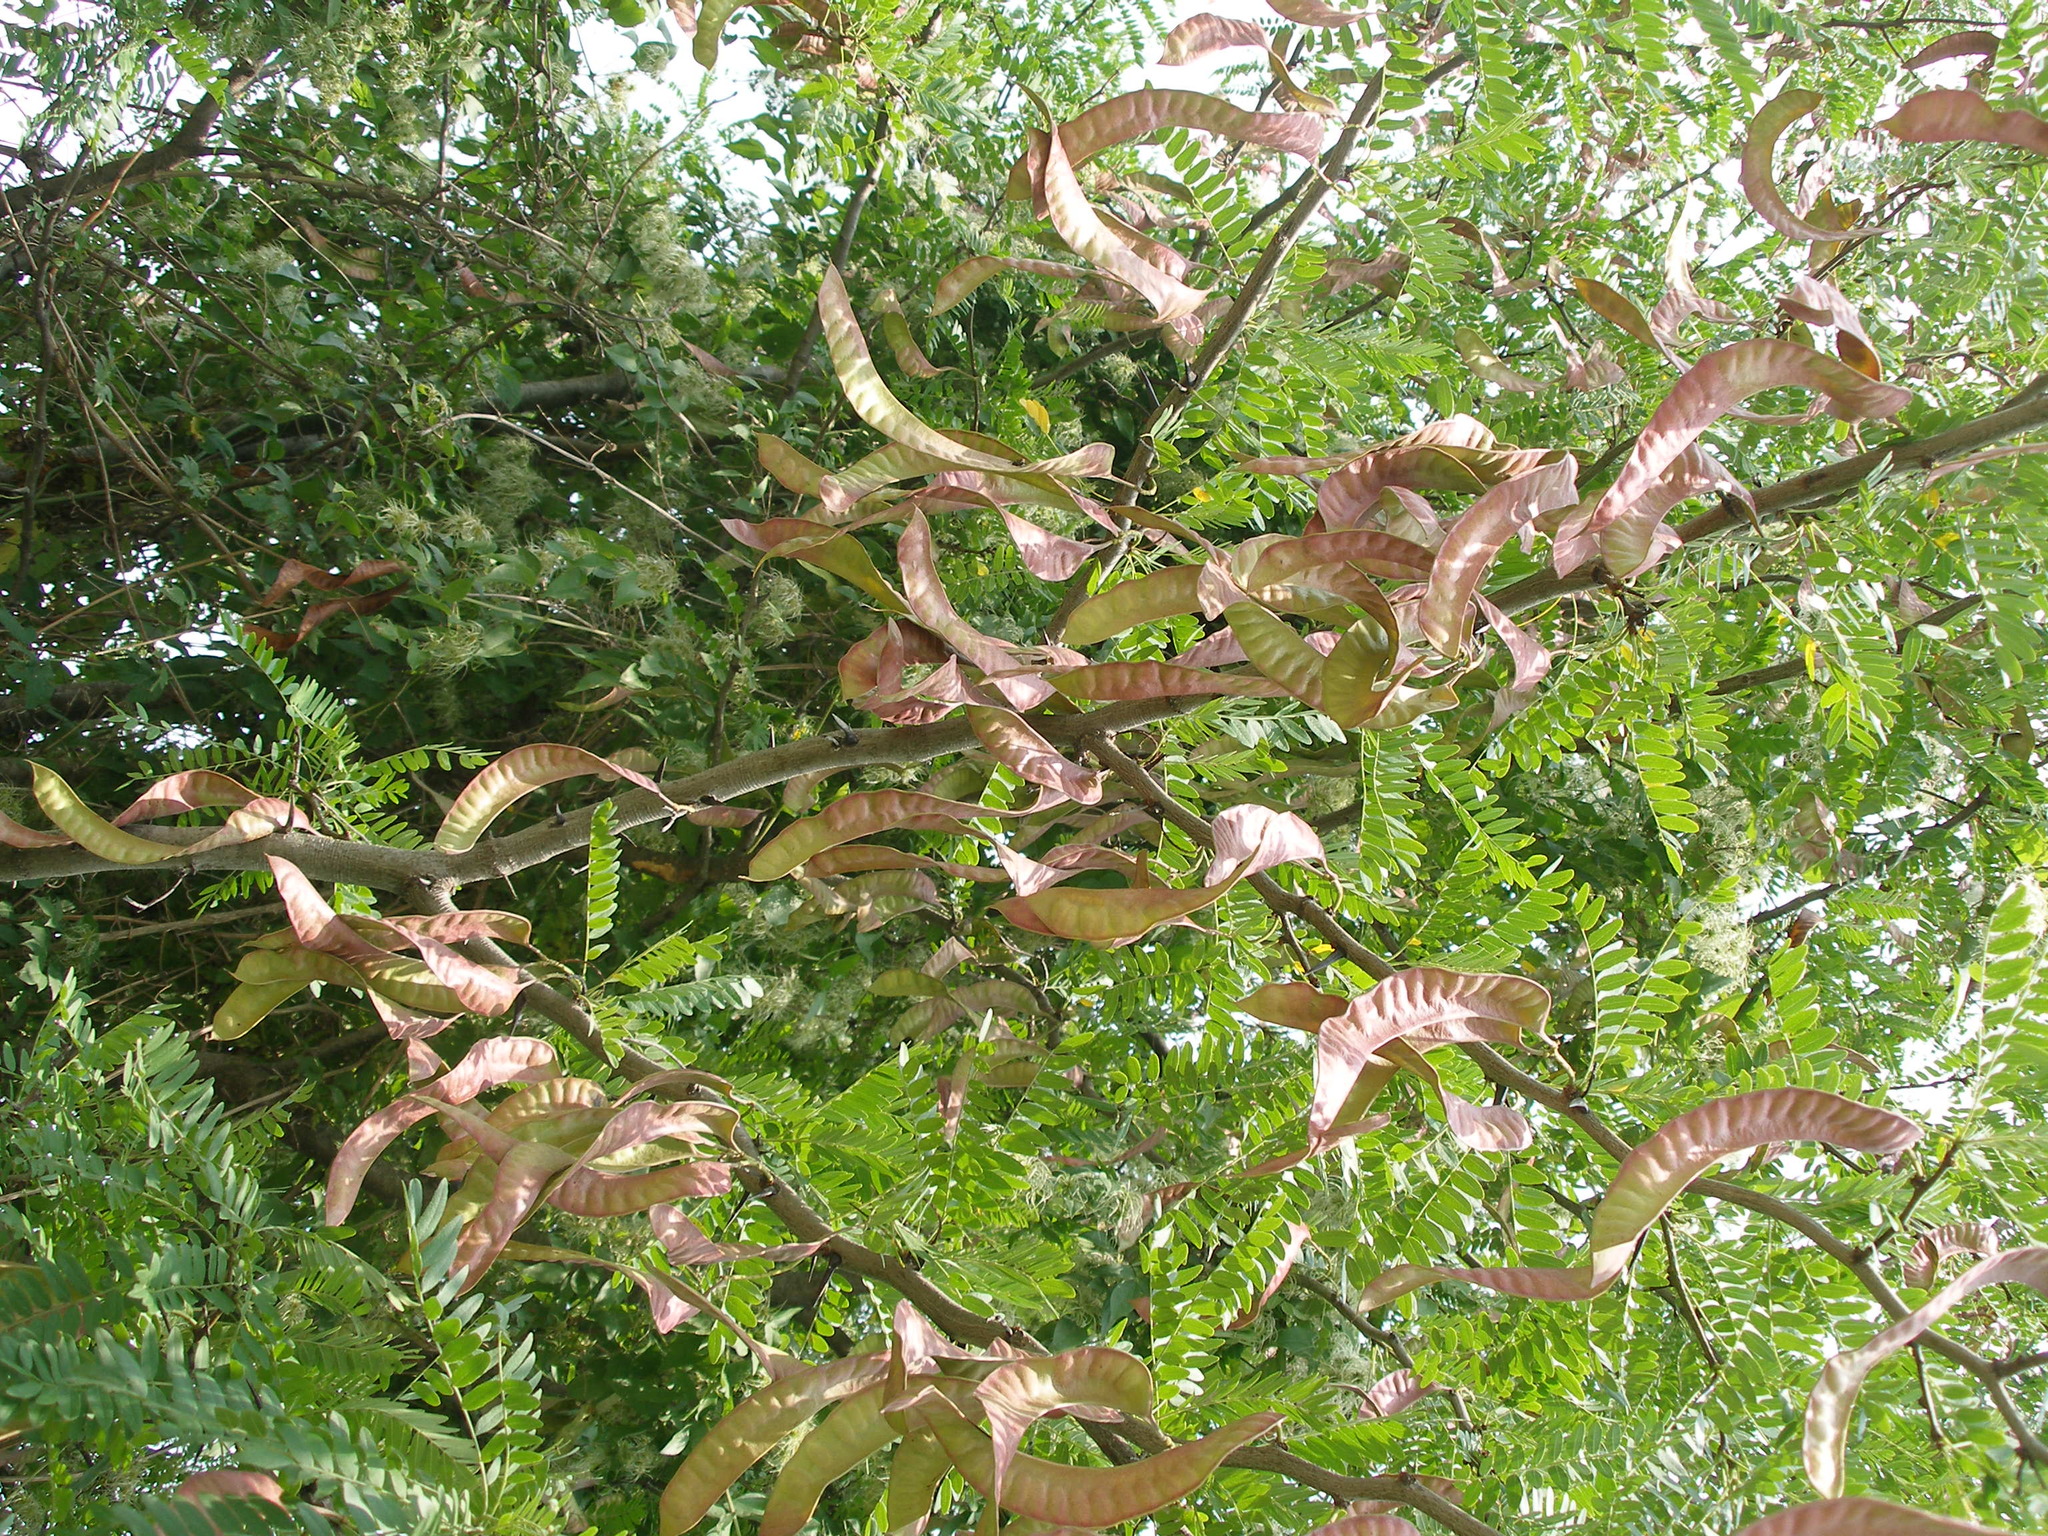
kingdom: Plantae
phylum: Tracheophyta
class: Magnoliopsida
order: Fabales
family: Fabaceae
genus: Gleditsia
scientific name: Gleditsia triacanthos
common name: Common honeylocust
